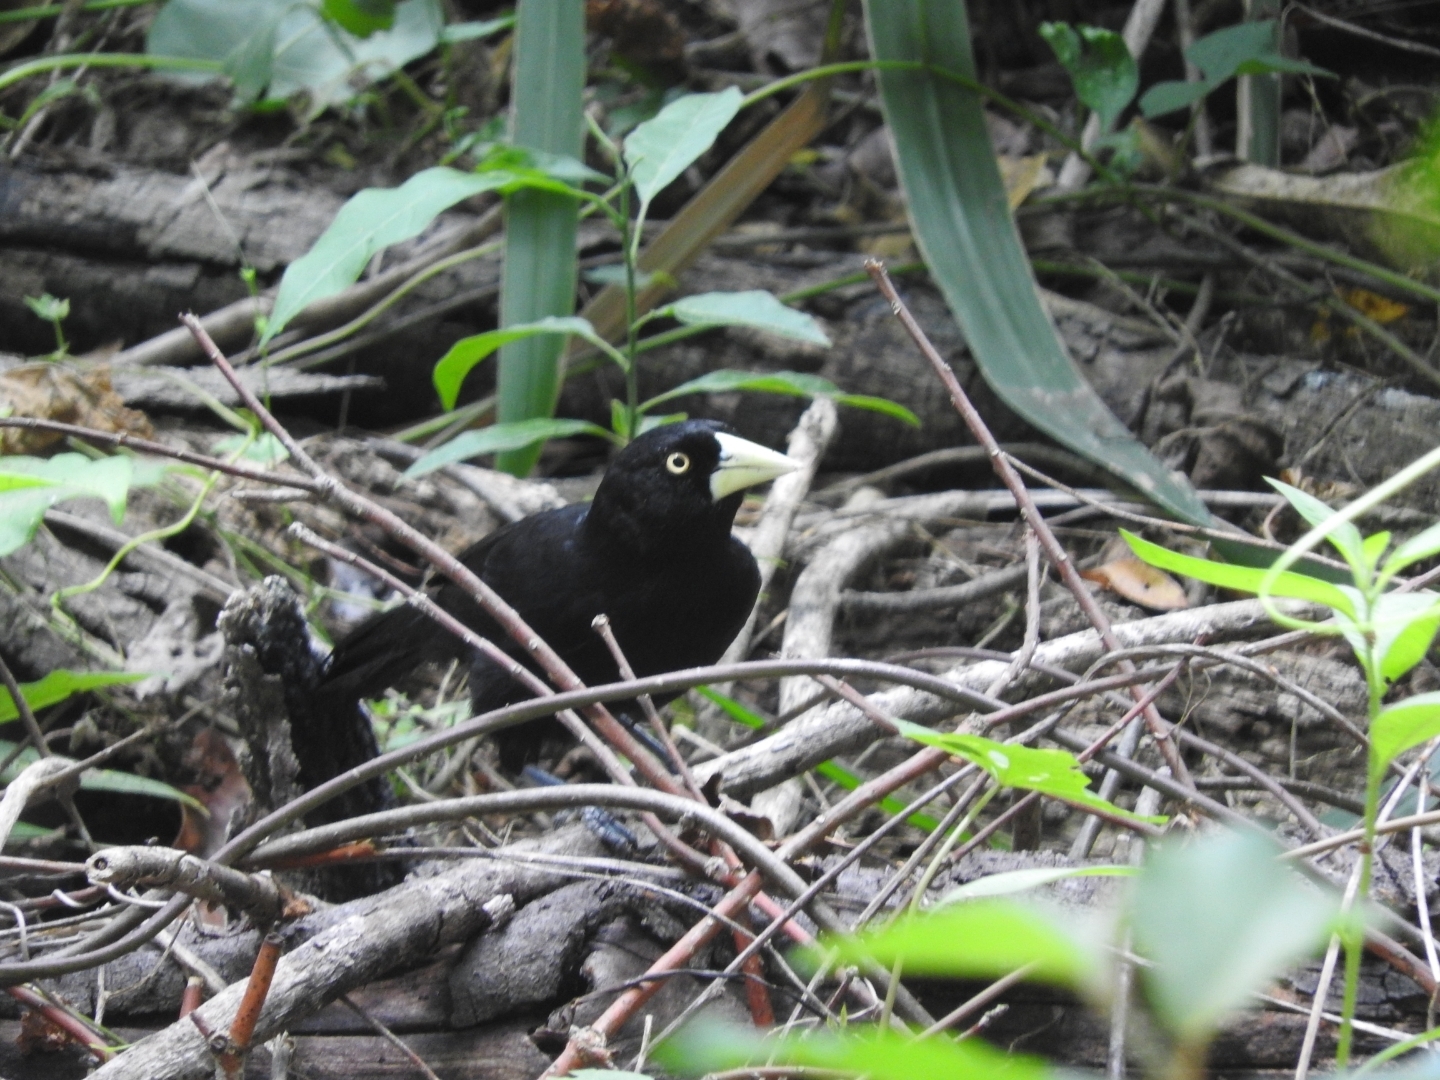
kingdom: Animalia
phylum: Chordata
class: Aves
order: Passeriformes
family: Icteridae
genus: Amblycercus
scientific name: Amblycercus holosericeus
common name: Yellow-billed cacique
